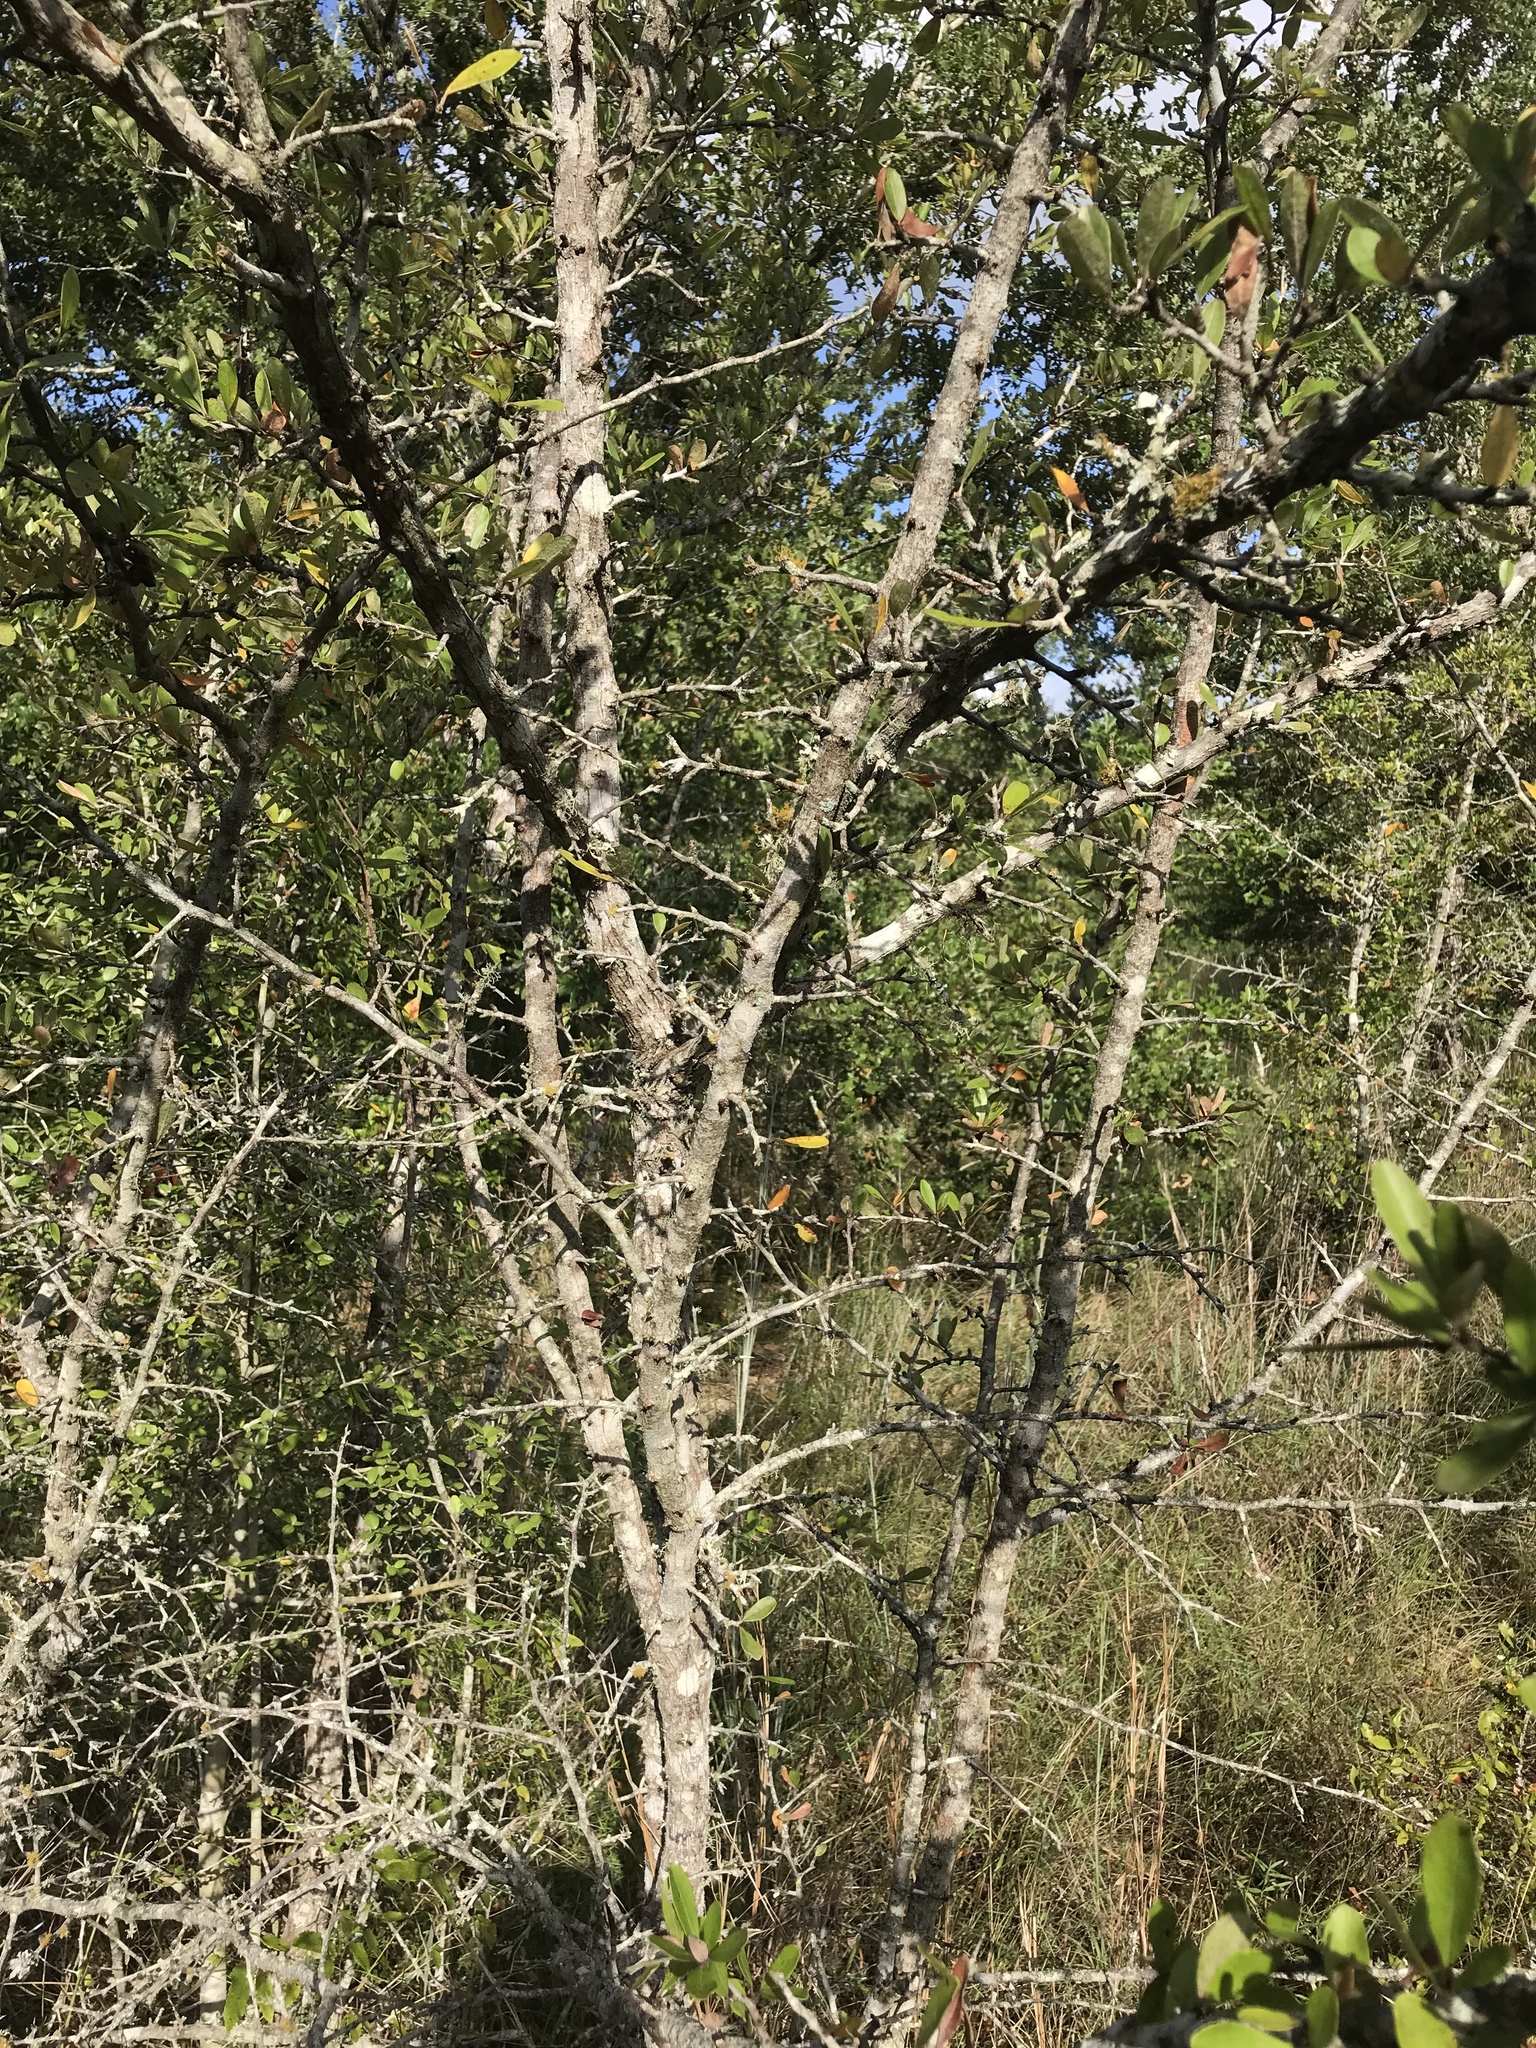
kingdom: Plantae
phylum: Tracheophyta
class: Magnoliopsida
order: Ericales
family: Sapotaceae
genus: Sideroxylon
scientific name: Sideroxylon lanuginosum
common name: Chittamwood
